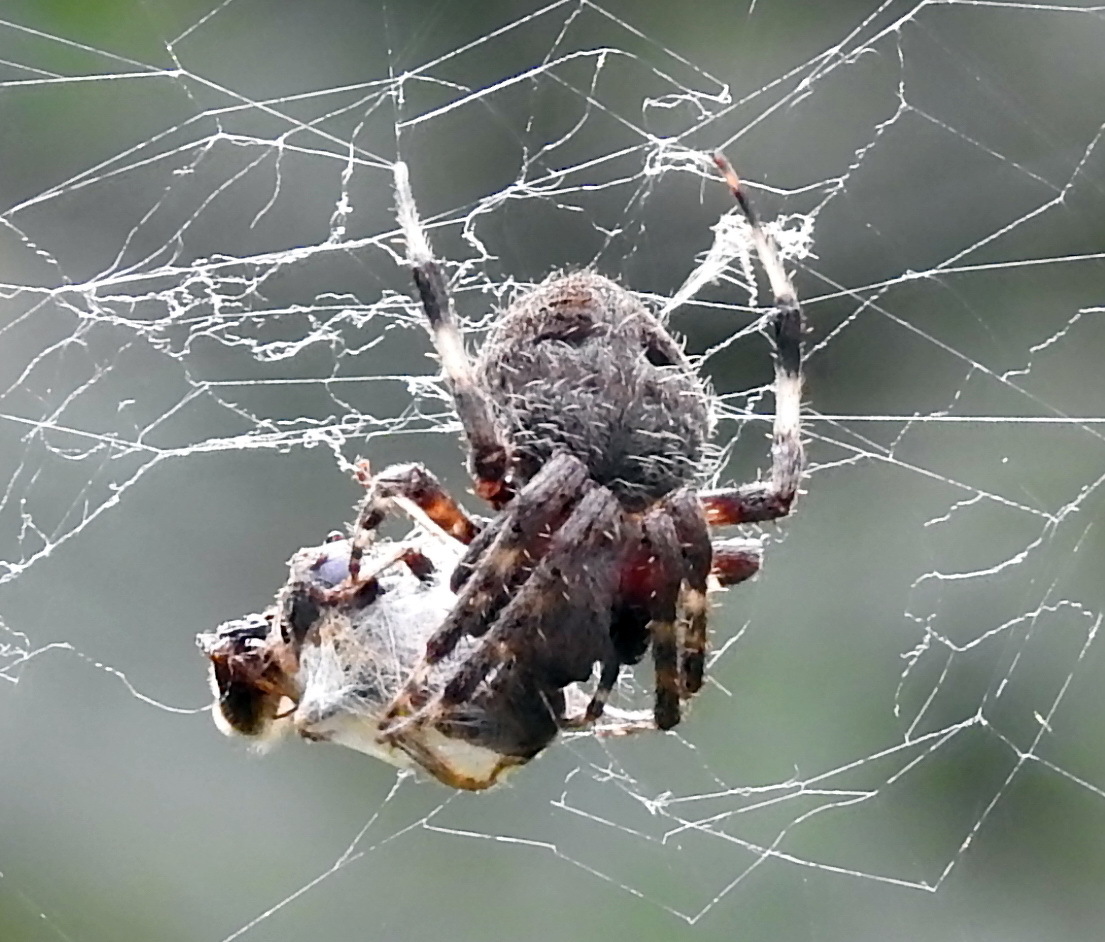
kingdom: Animalia
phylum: Arthropoda
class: Arachnida
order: Araneae
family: Araneidae
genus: Neoscona
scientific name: Neoscona crucifera
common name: Spotted orbweaver
